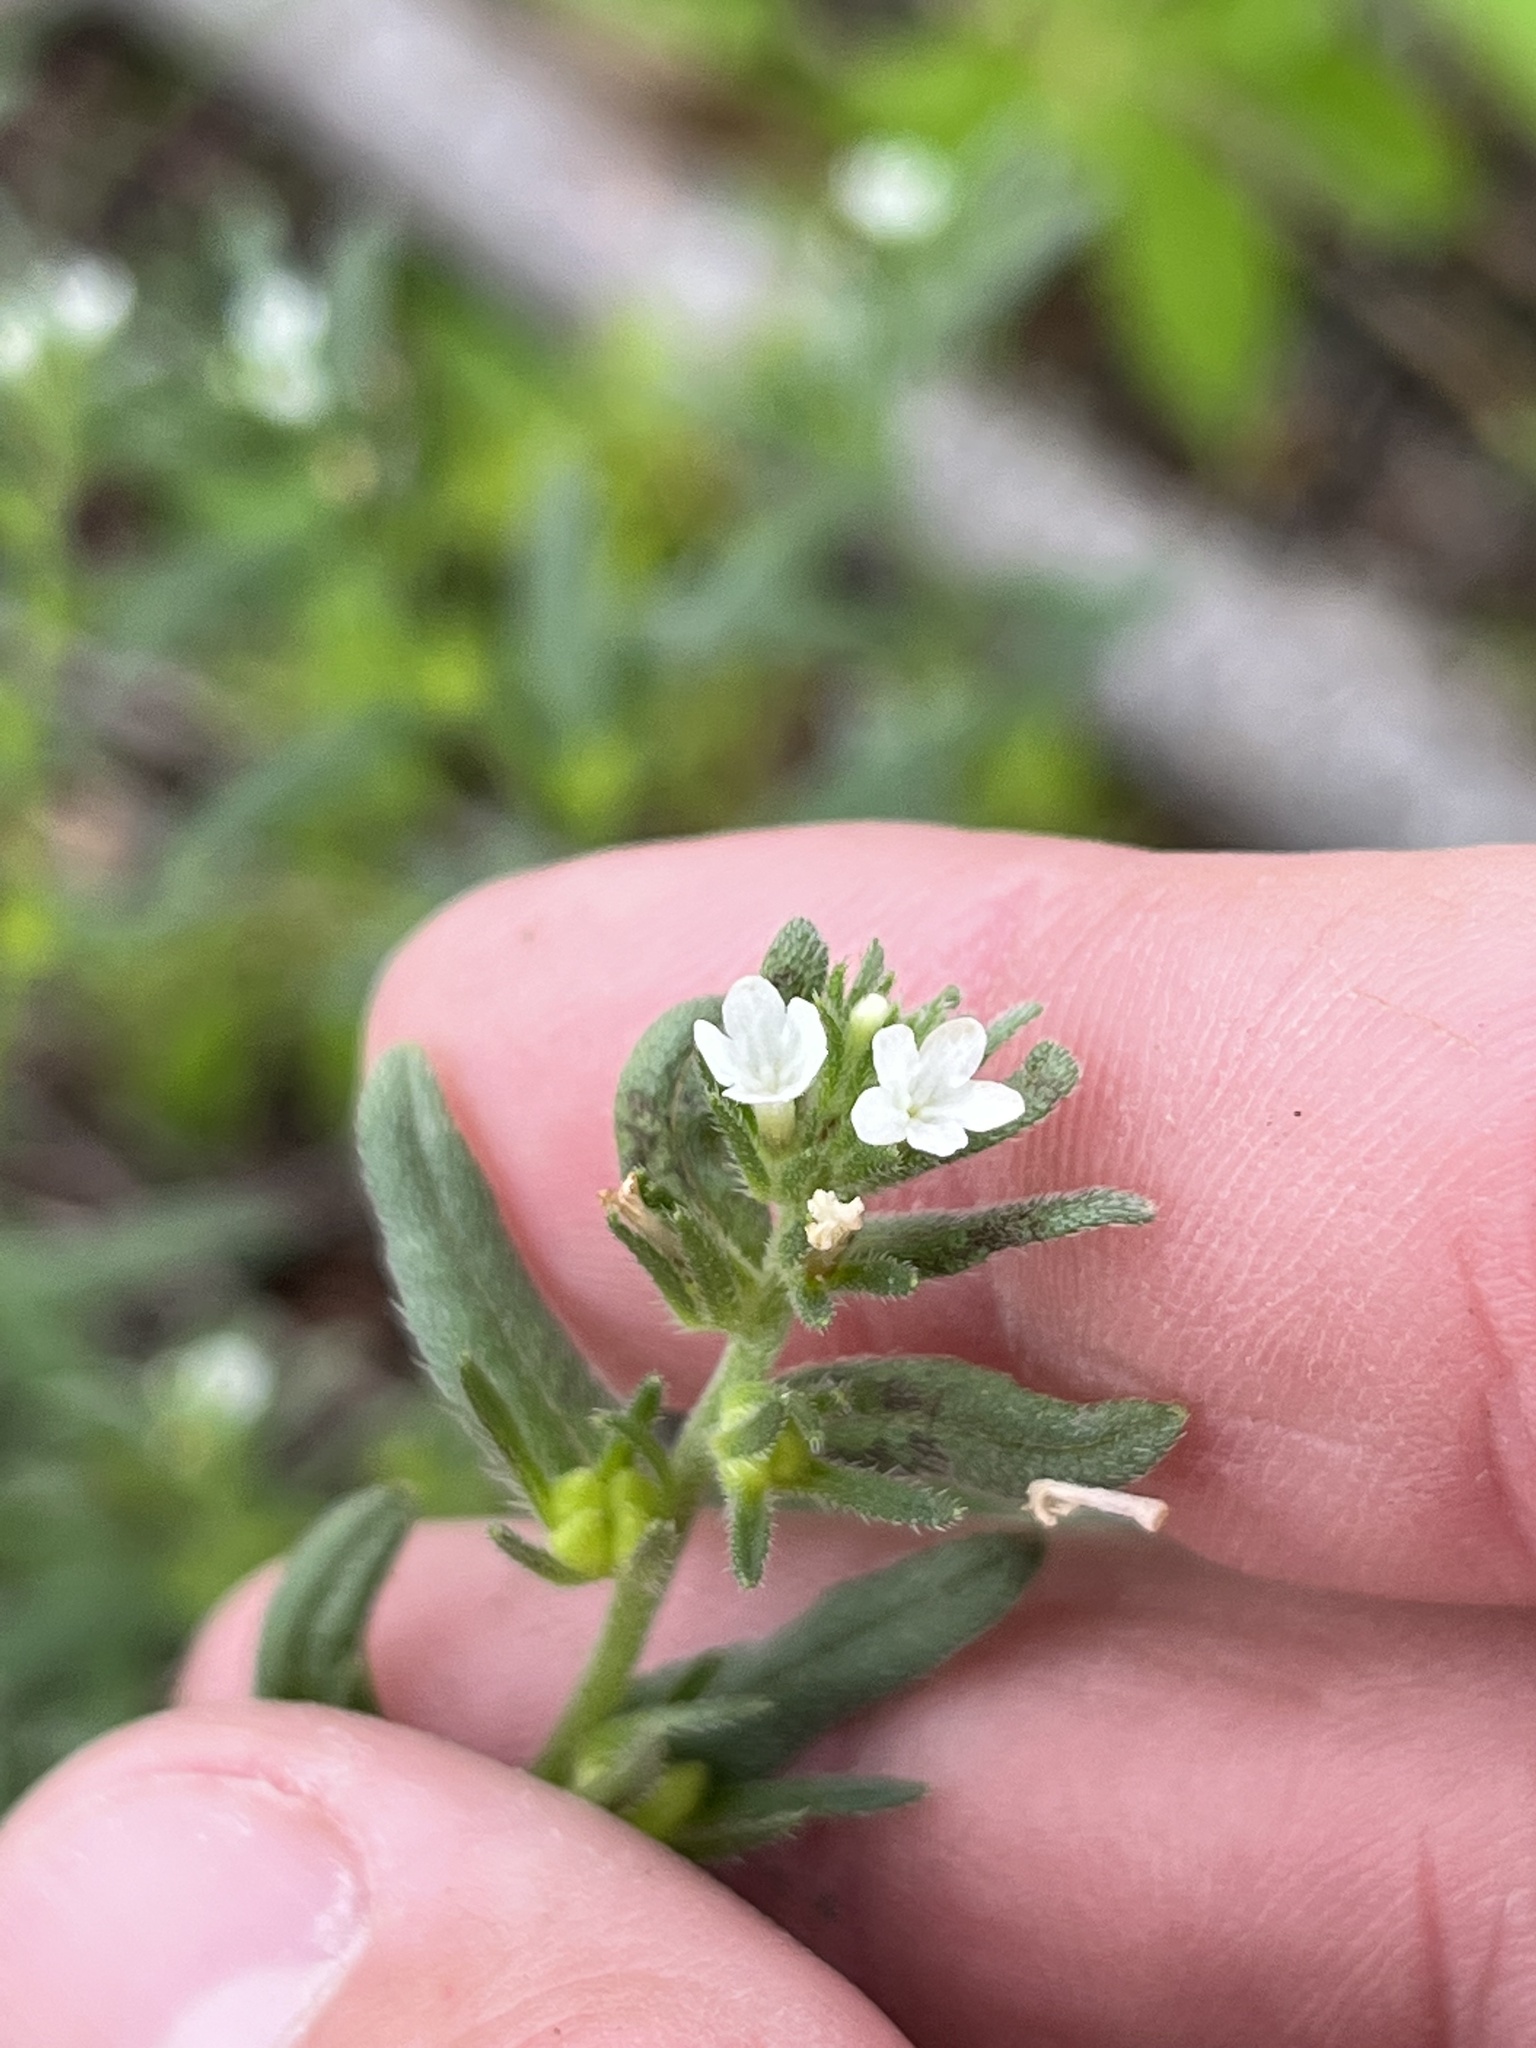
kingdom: Plantae
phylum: Tracheophyta
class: Magnoliopsida
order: Boraginales
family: Boraginaceae
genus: Buglossoides
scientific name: Buglossoides arvensis
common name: Corn gromwell
